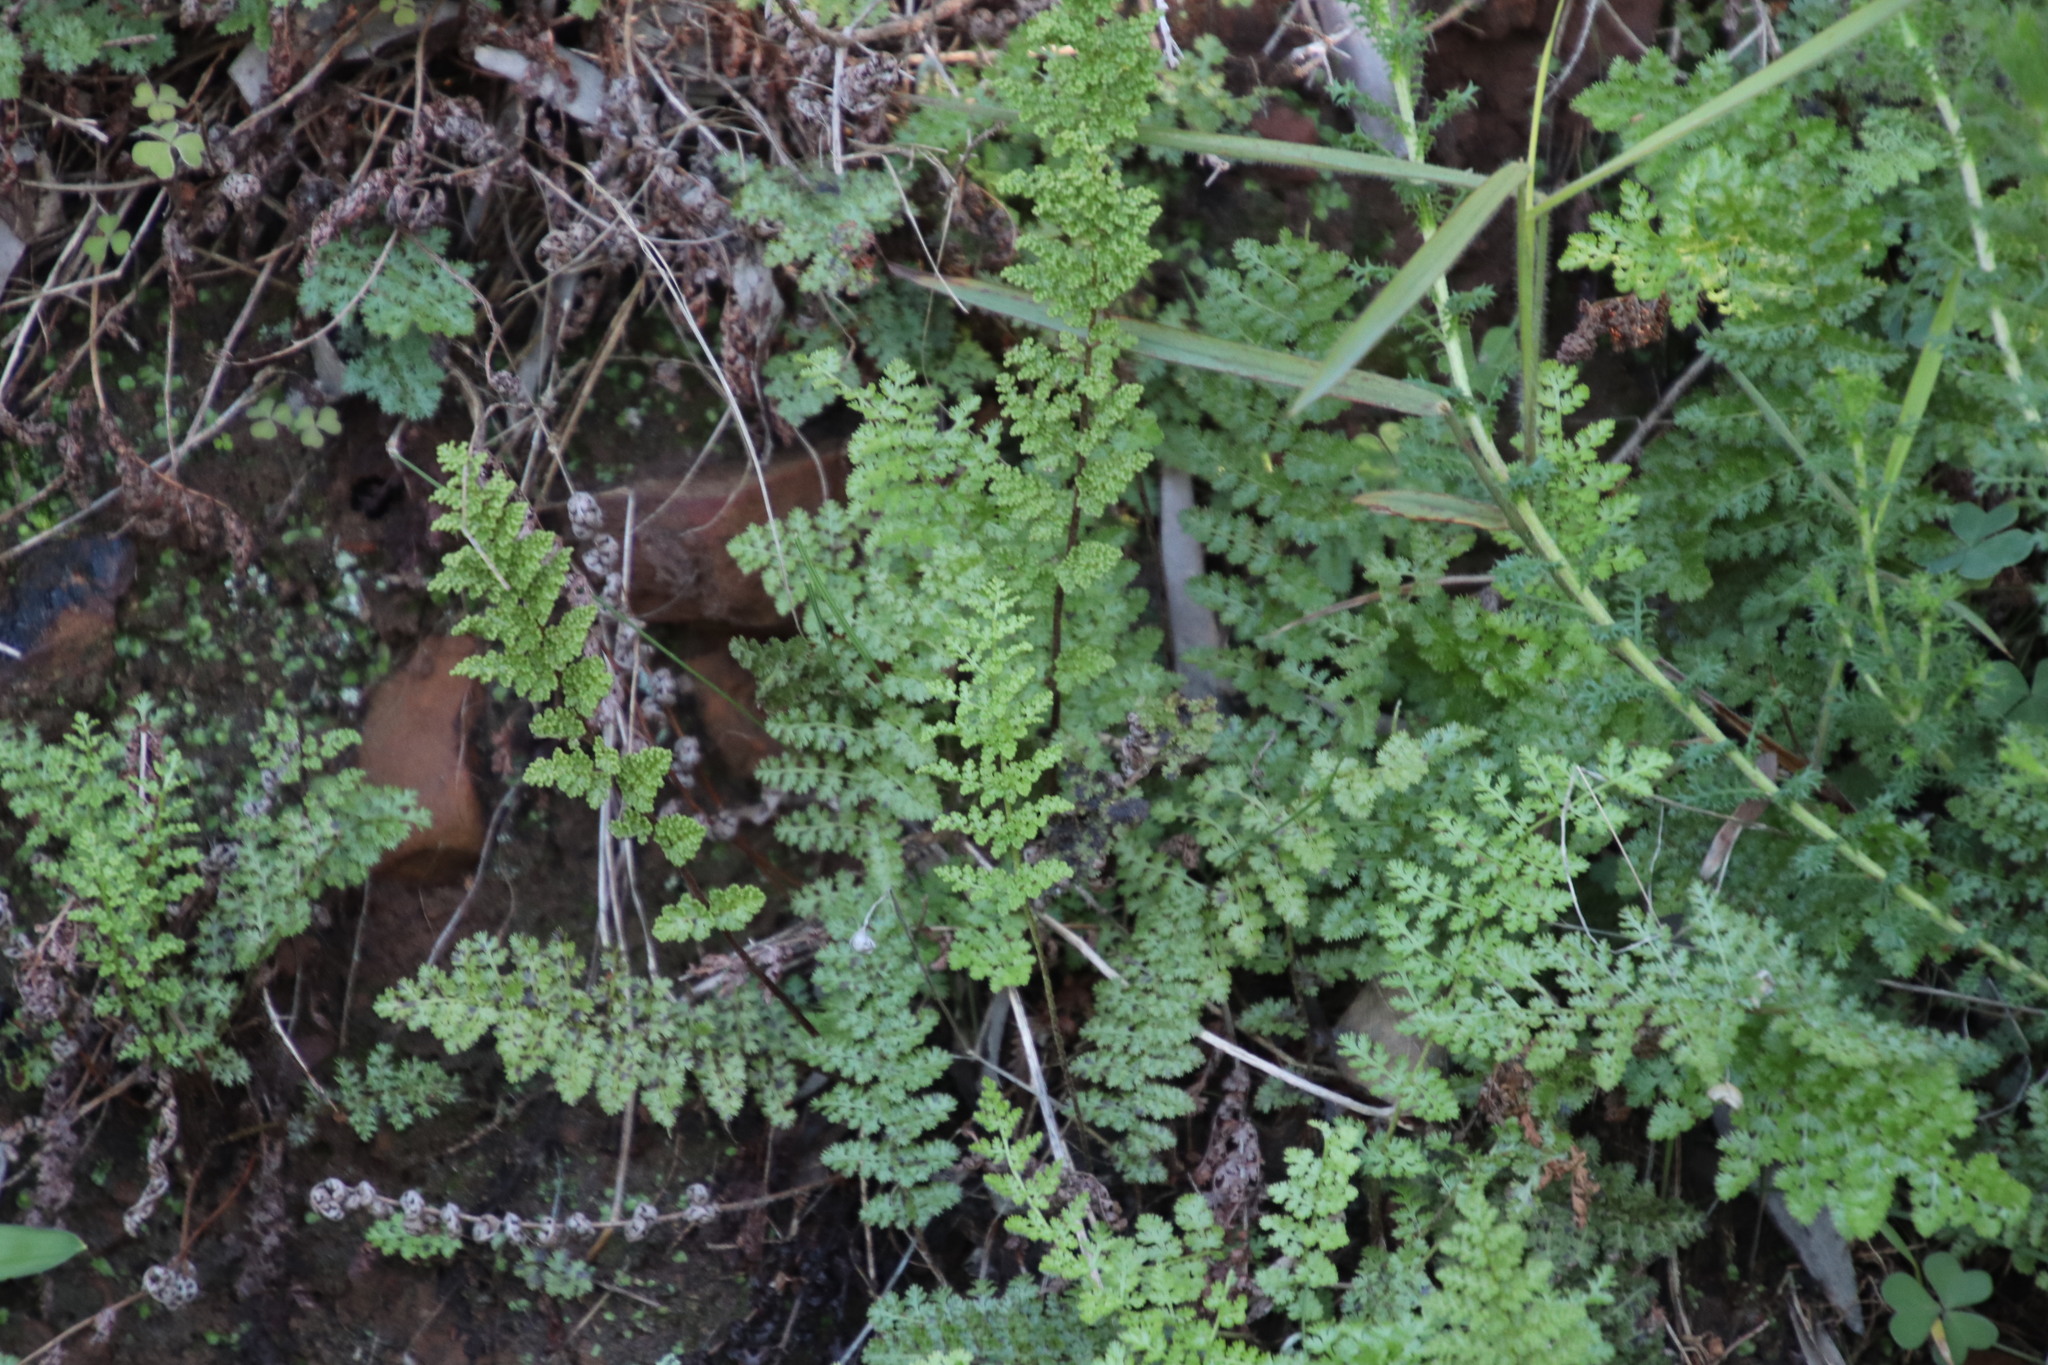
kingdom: Plantae
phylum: Tracheophyta
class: Polypodiopsida
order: Schizaeales
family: Anemiaceae
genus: Anemia
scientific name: Anemia caffrorum
